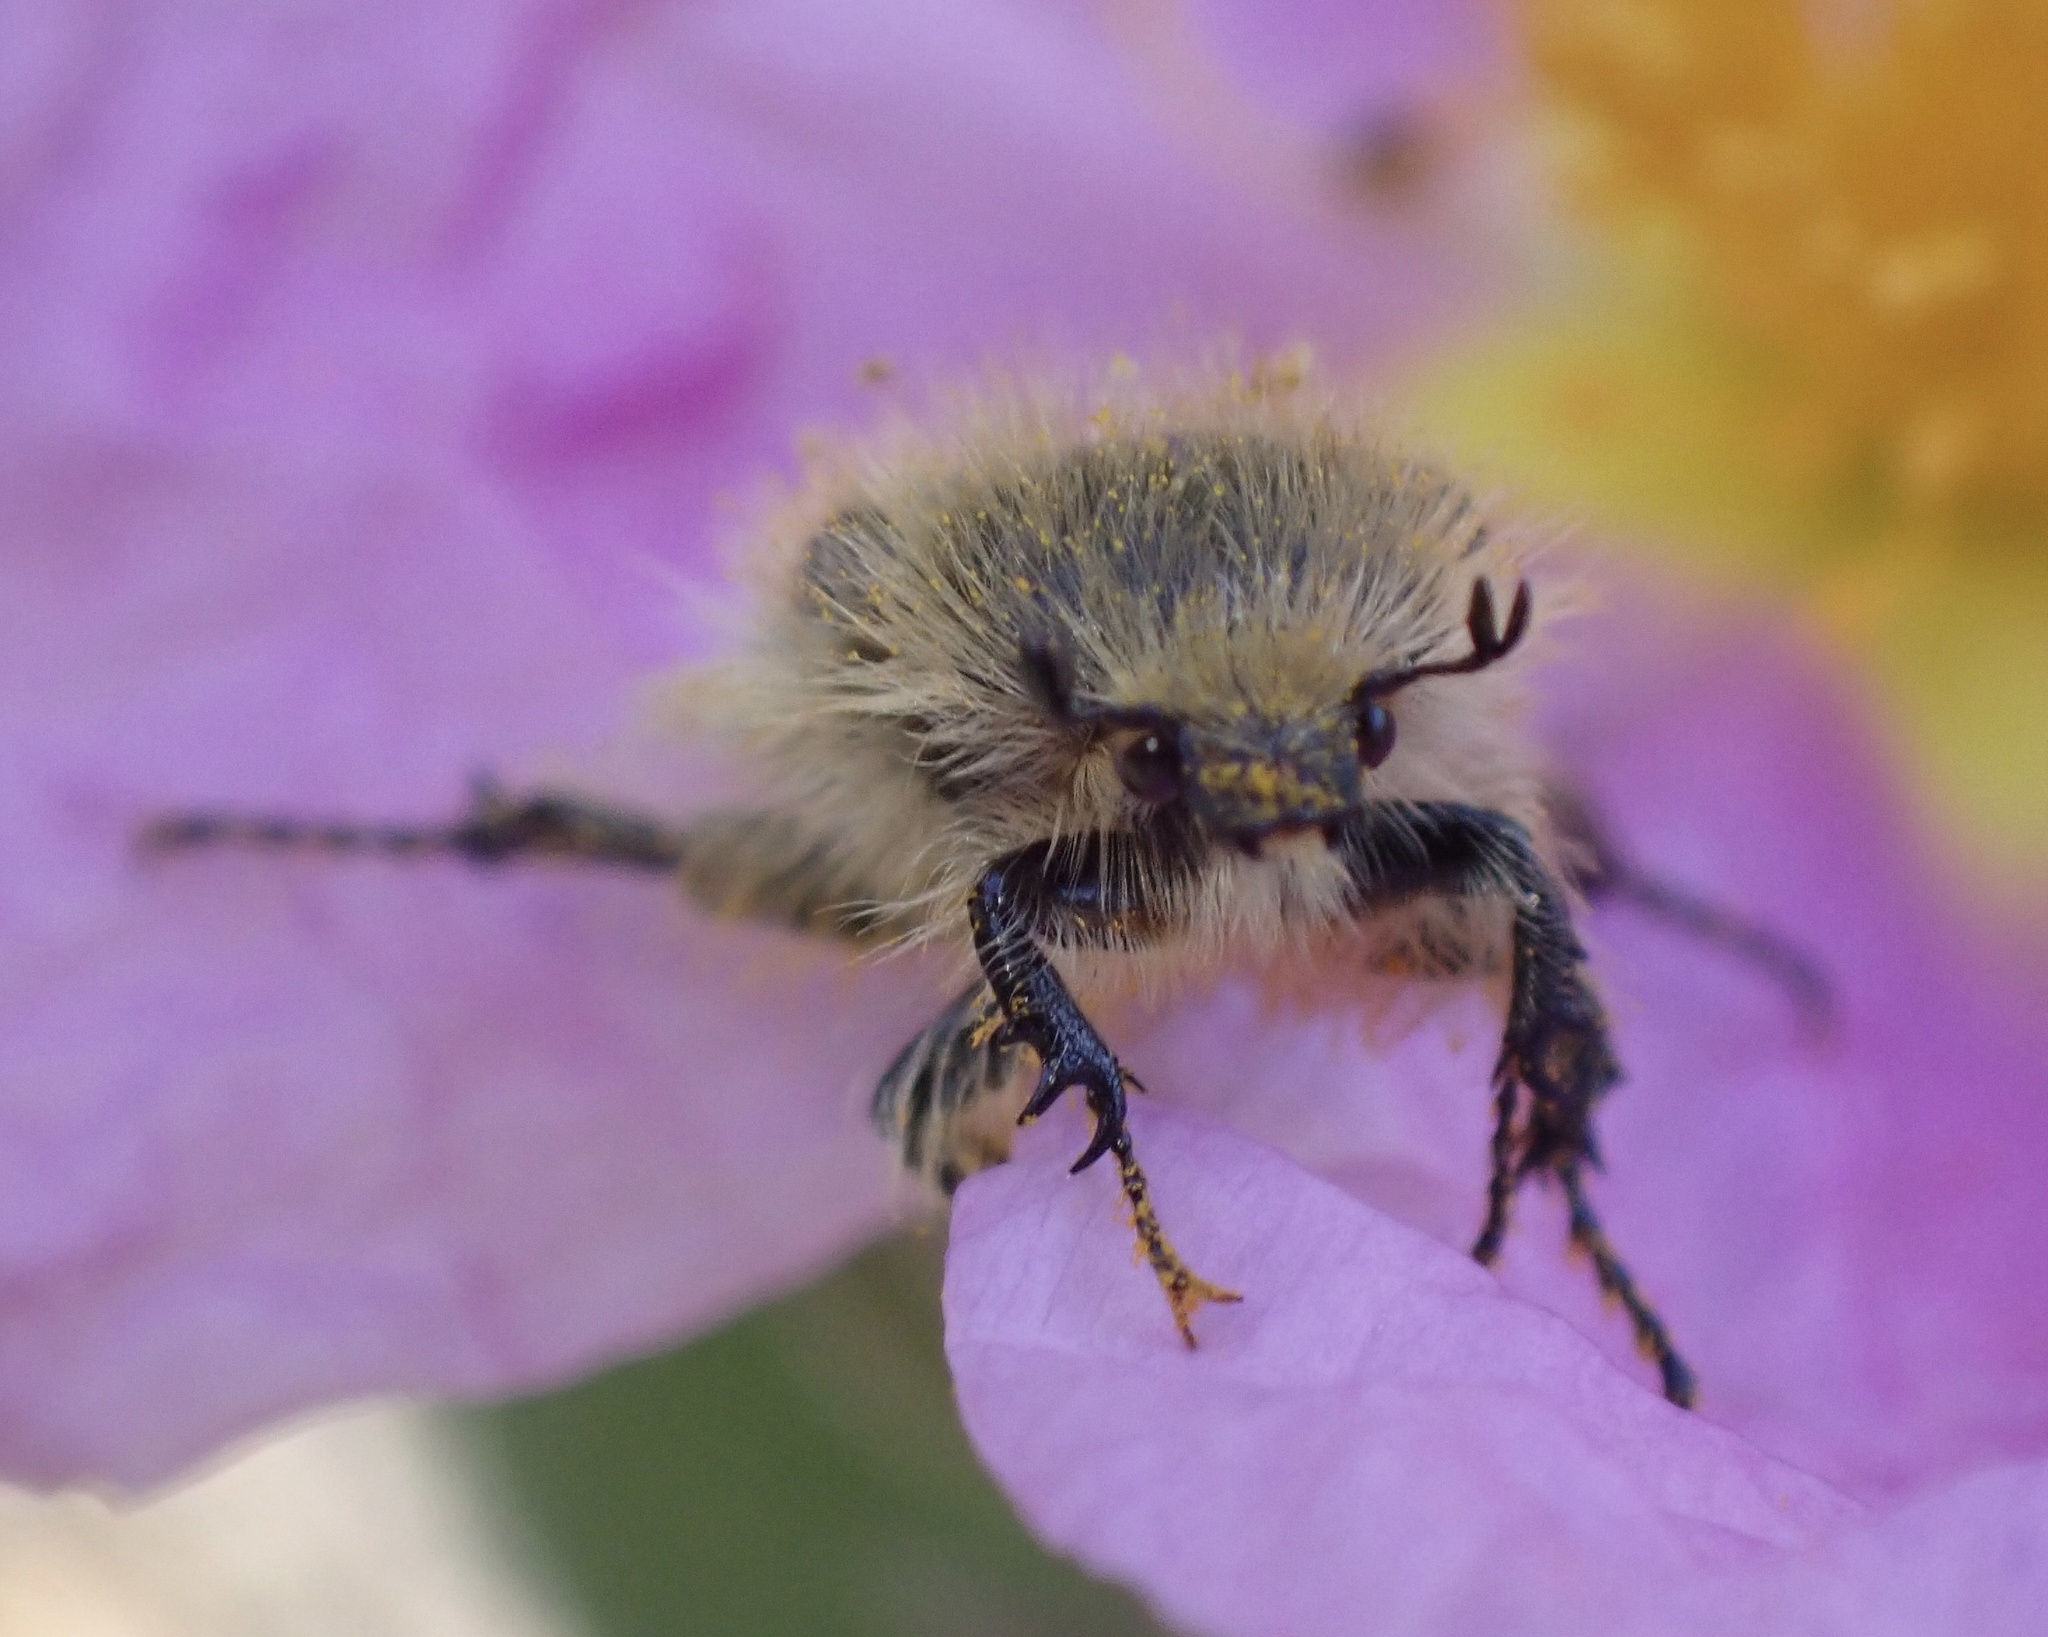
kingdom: Animalia
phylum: Arthropoda
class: Insecta
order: Coleoptera
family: Scarabaeidae
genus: Tropinota
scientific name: Tropinota squalida
